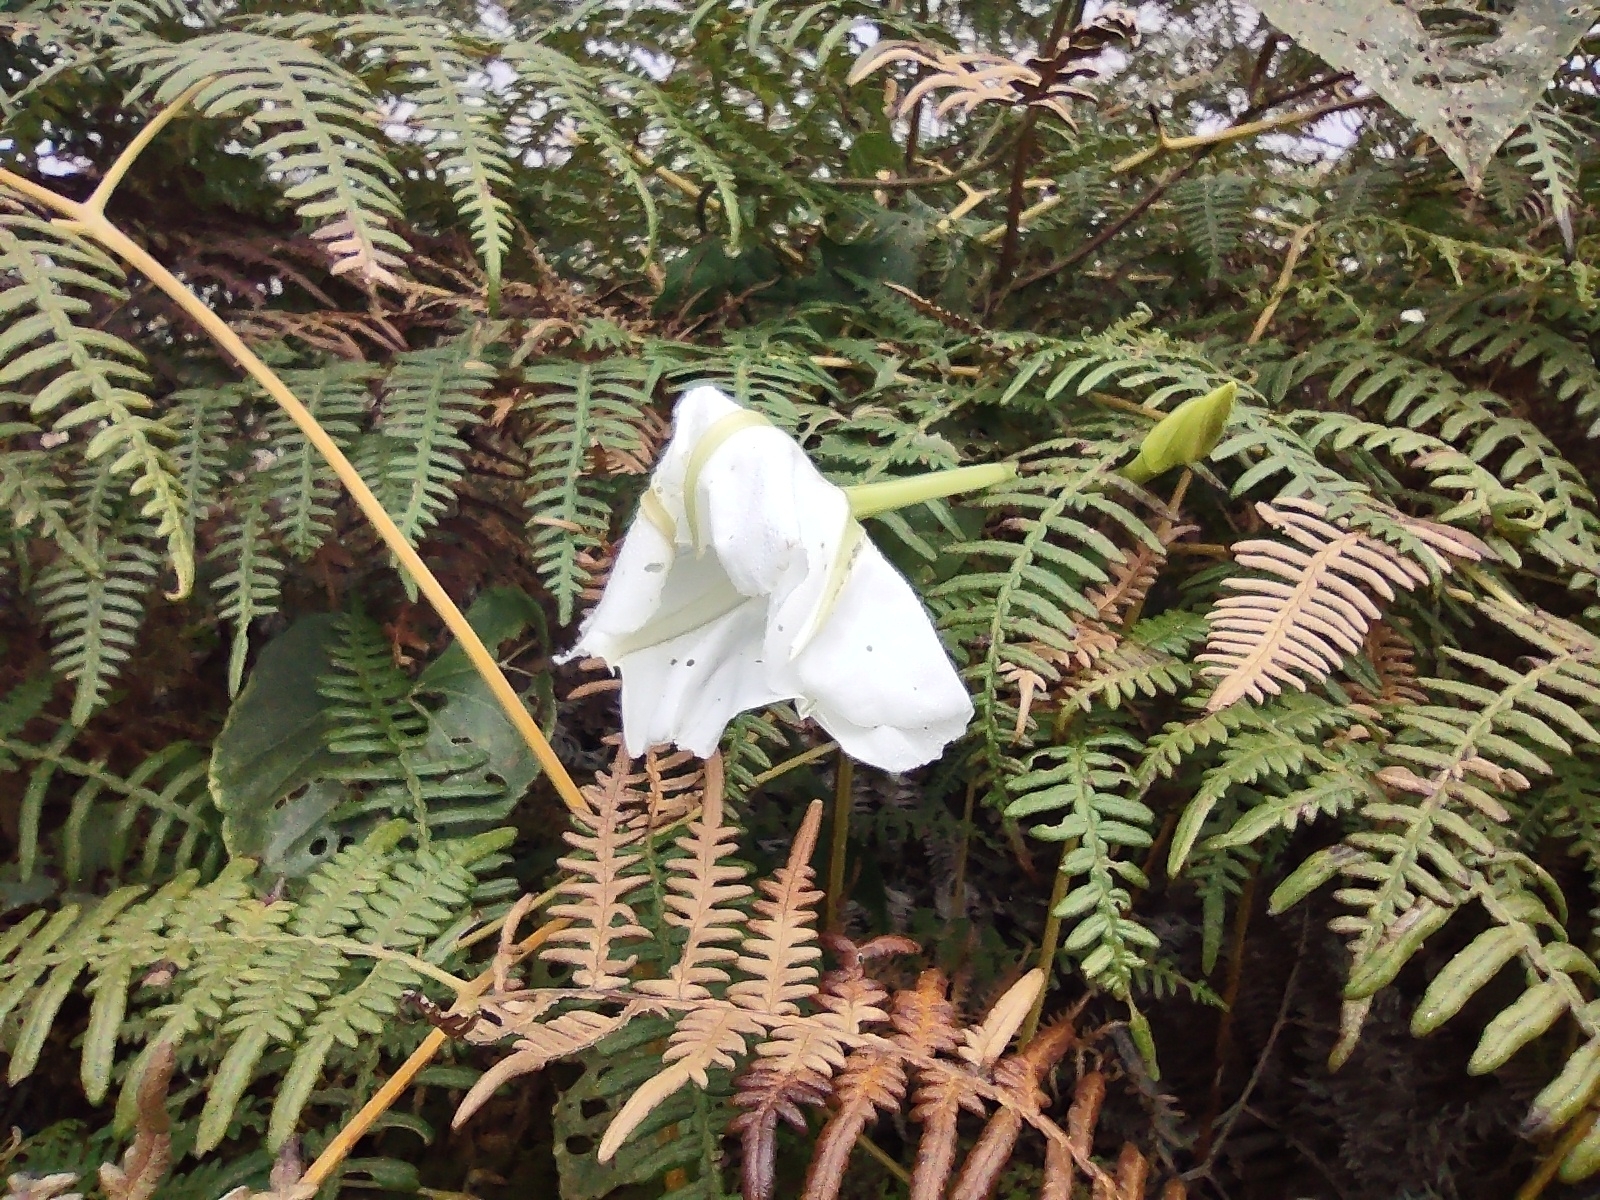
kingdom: Plantae
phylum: Tracheophyta
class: Magnoliopsida
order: Solanales
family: Convolvulaceae
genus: Ipomoea
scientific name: Ipomoea alba
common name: Moonflower
